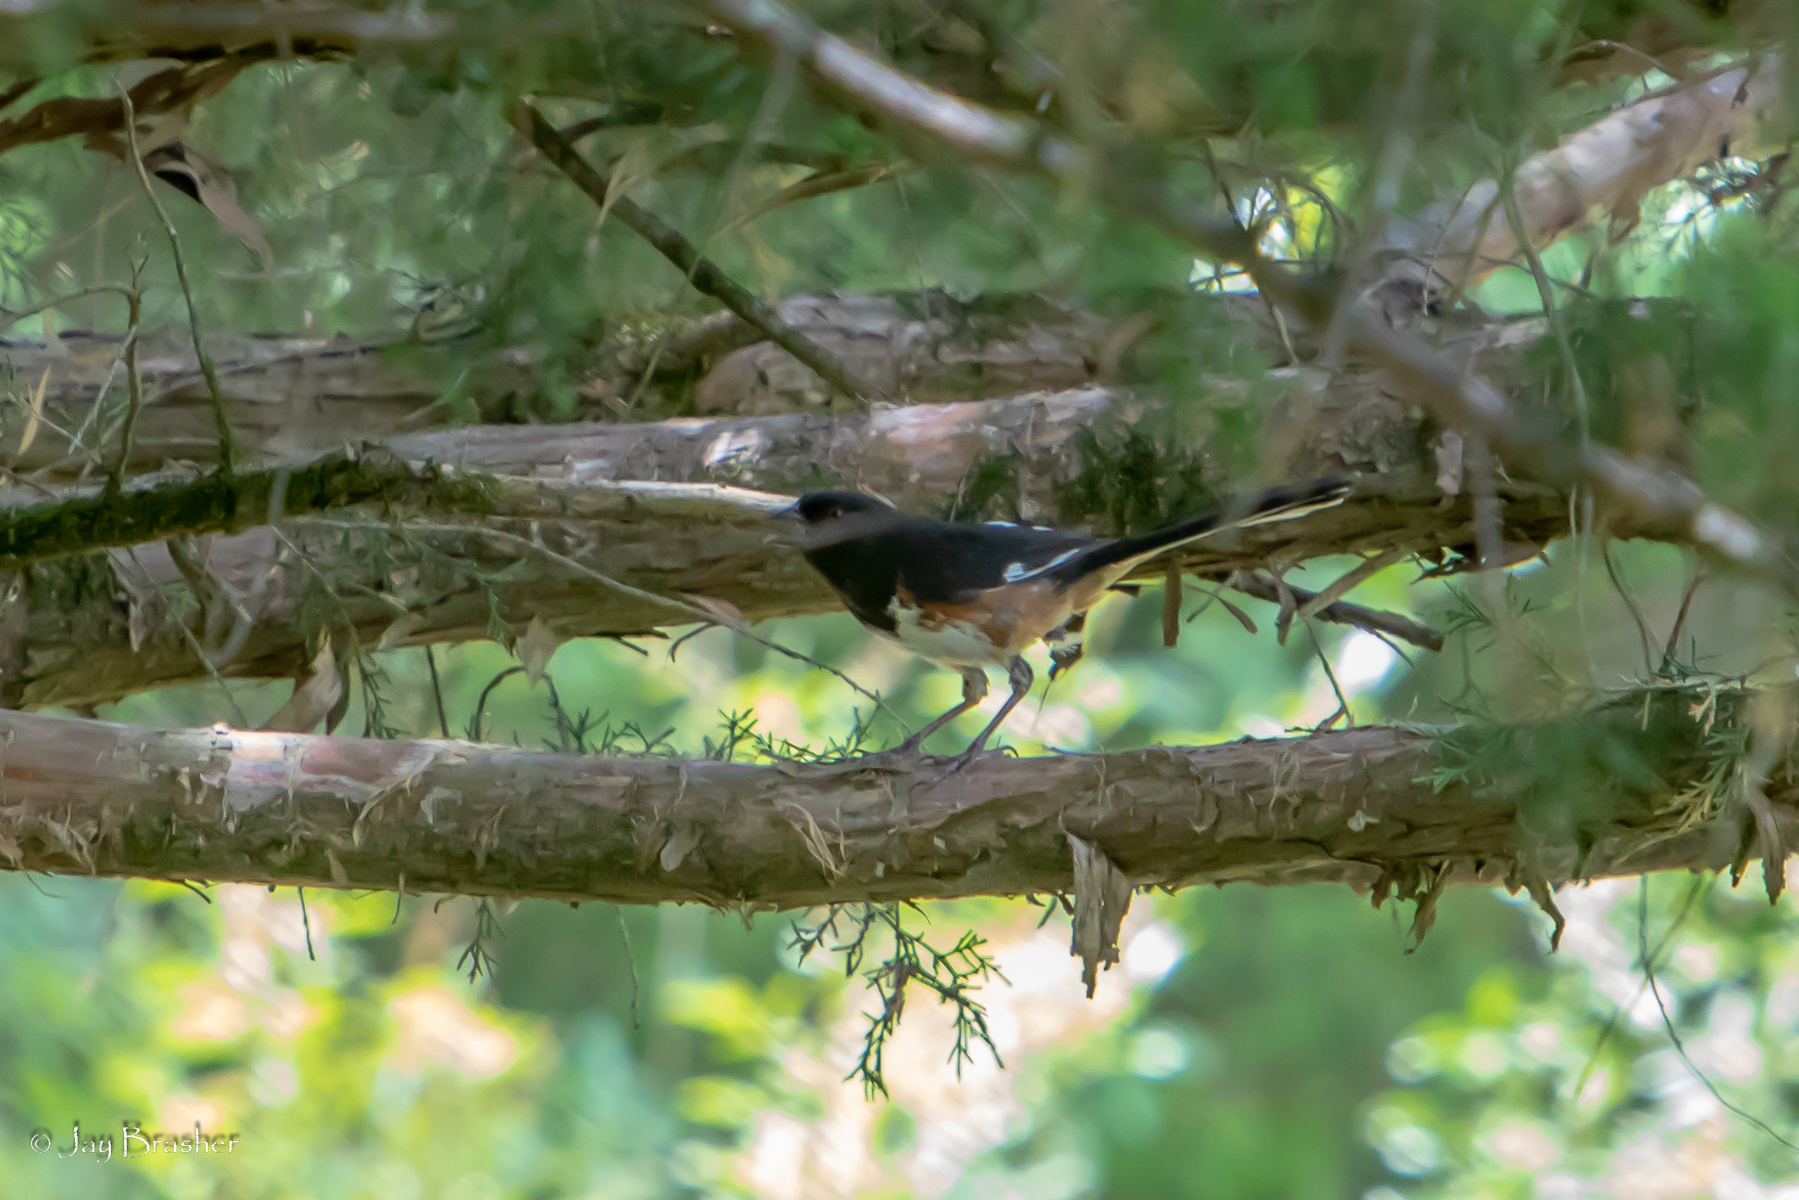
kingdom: Animalia
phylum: Chordata
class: Aves
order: Passeriformes
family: Passerellidae
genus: Pipilo
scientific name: Pipilo erythrophthalmus
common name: Eastern towhee
